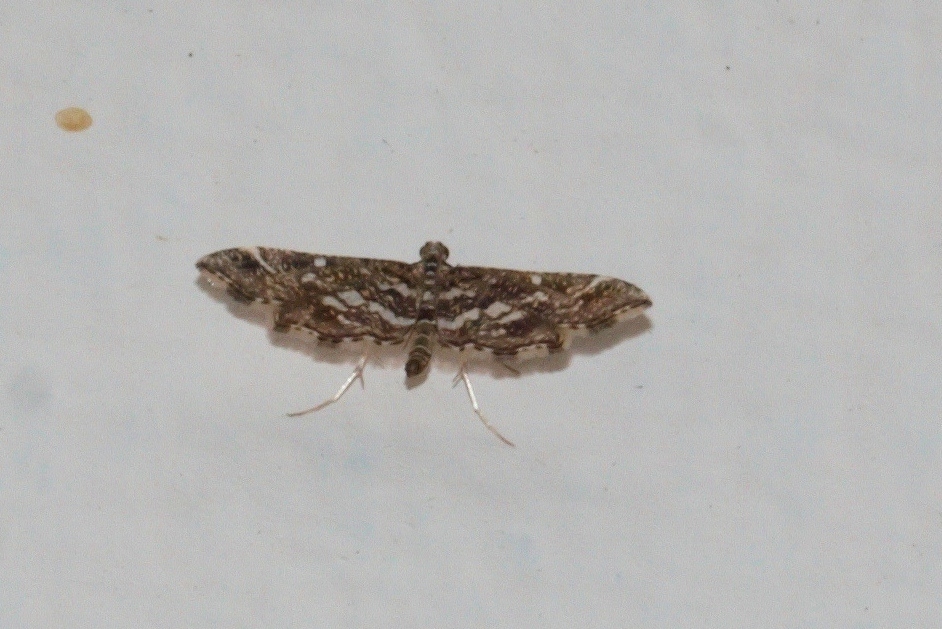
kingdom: Animalia
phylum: Arthropoda
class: Insecta
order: Lepidoptera
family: Crambidae
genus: Diasemiopsis
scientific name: Diasemiopsis ramburialis
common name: Vagrant china-mark
